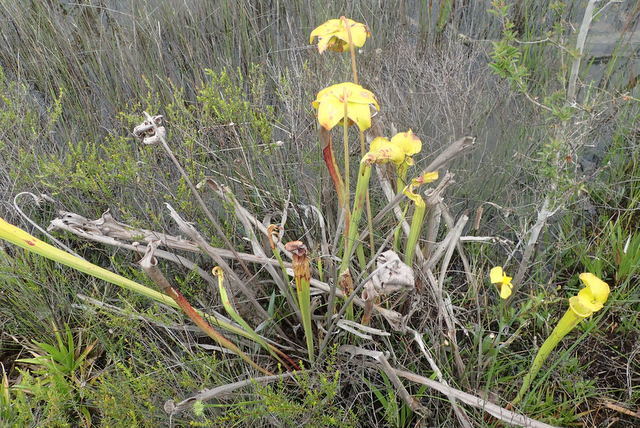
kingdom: Plantae
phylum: Tracheophyta
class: Magnoliopsida
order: Ericales
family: Sarraceniaceae
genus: Sarracenia
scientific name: Sarracenia flava
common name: Trumpets
